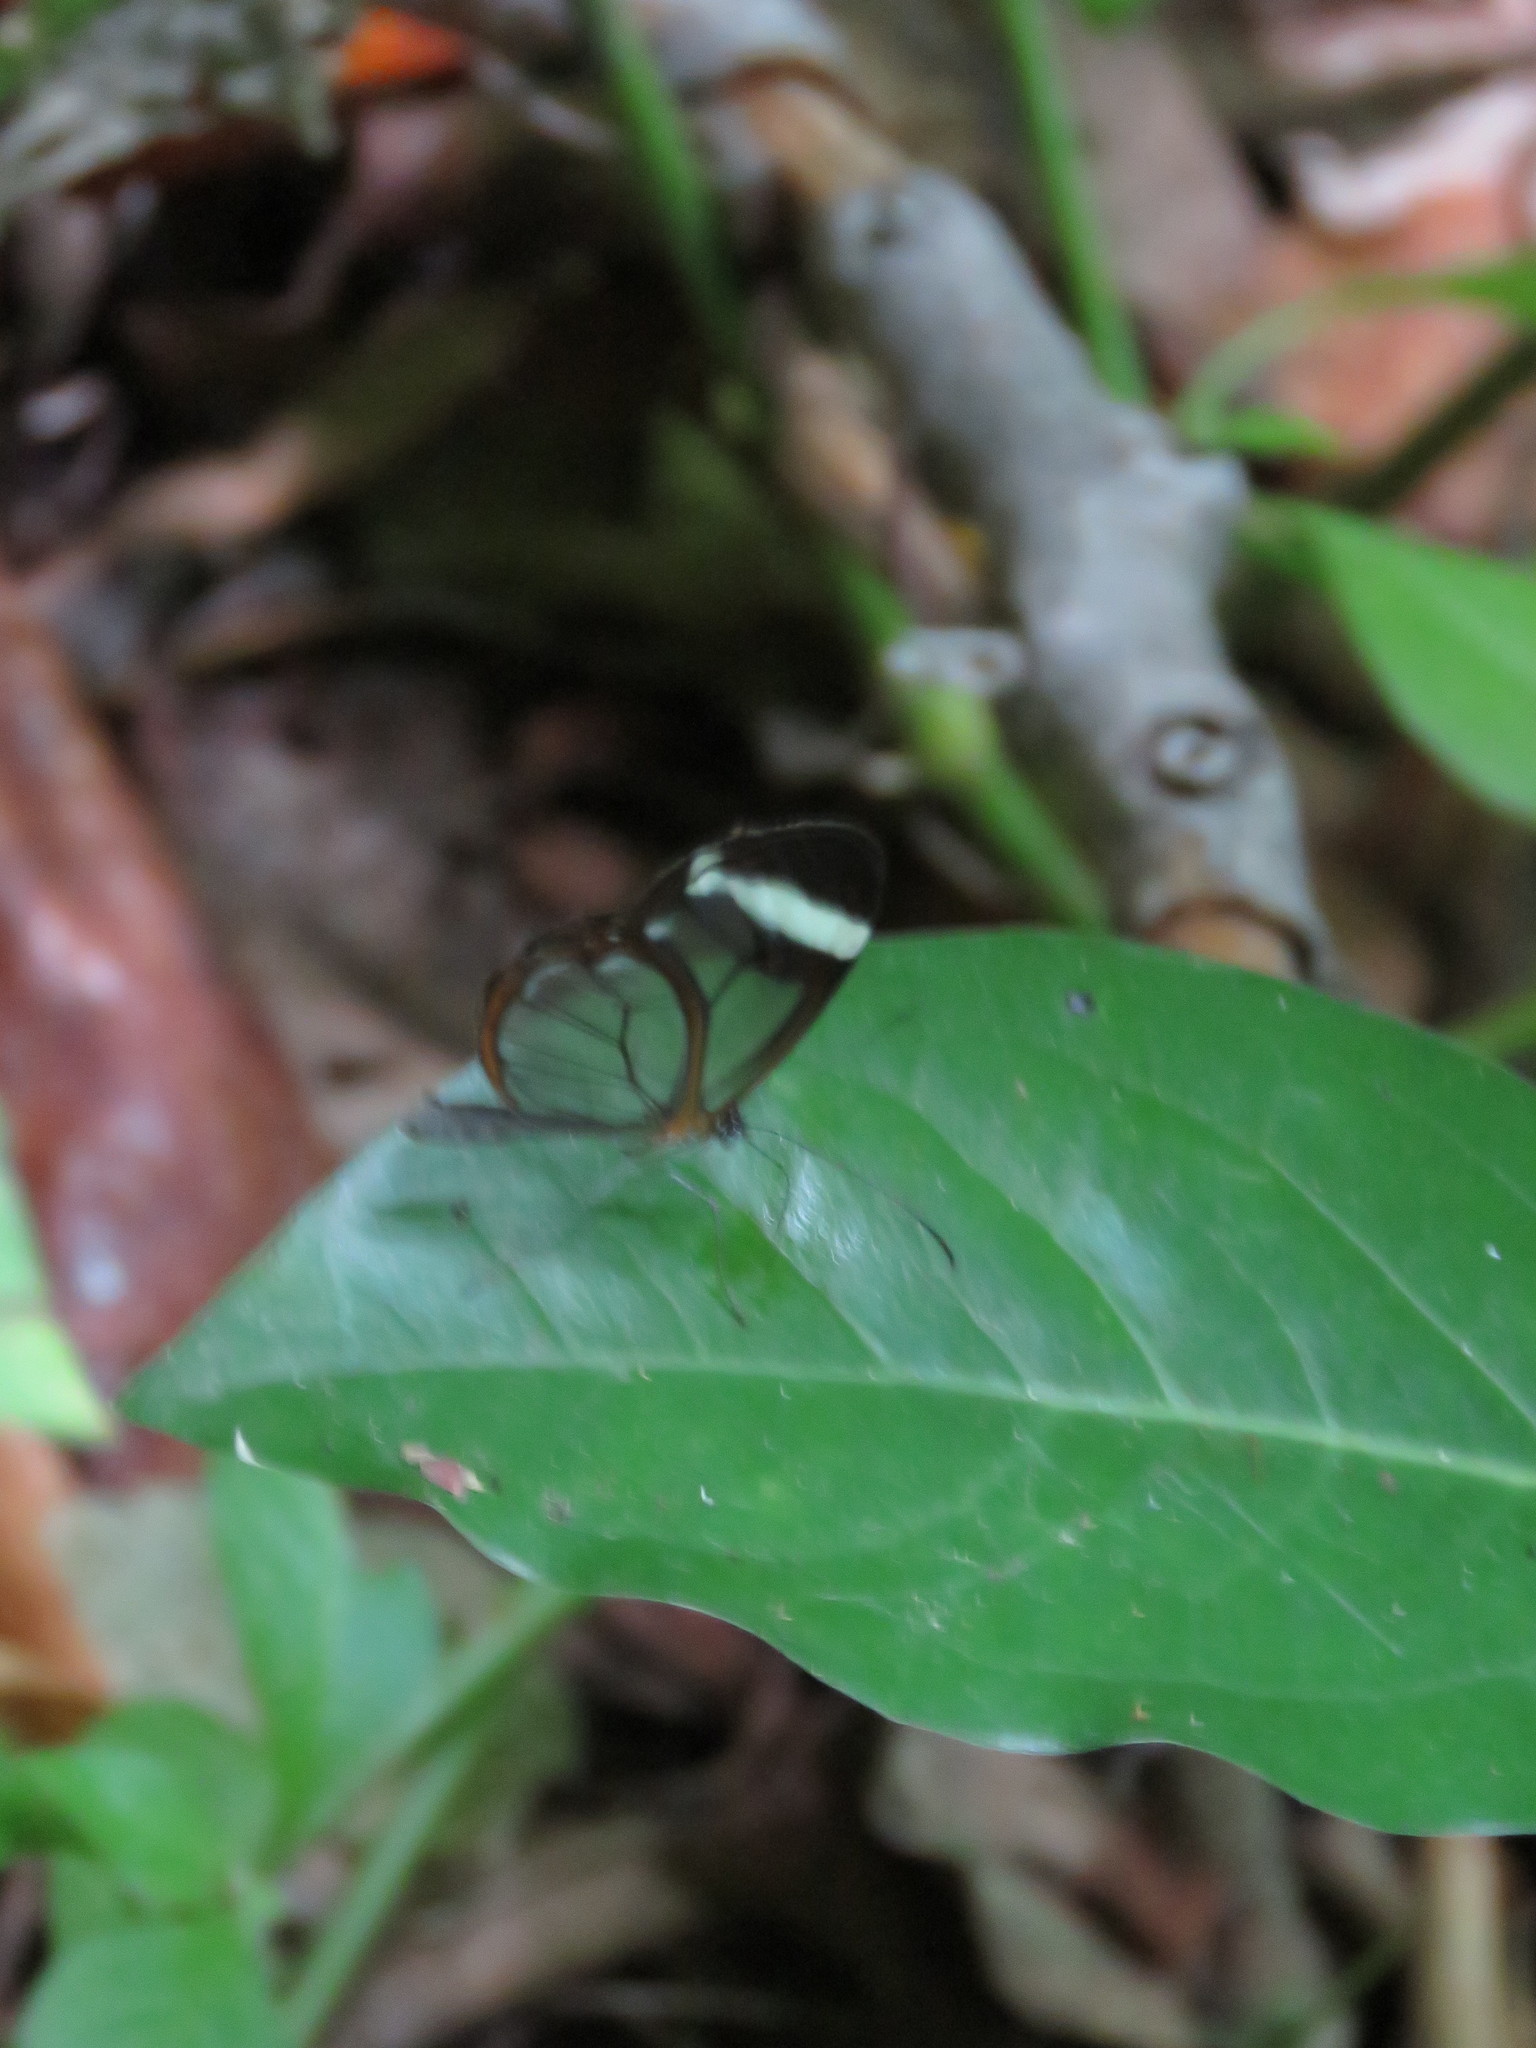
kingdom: Animalia
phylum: Arthropoda
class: Insecta
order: Lepidoptera
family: Nymphalidae
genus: Greta
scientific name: Greta morgane
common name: Thick-tipped greta
